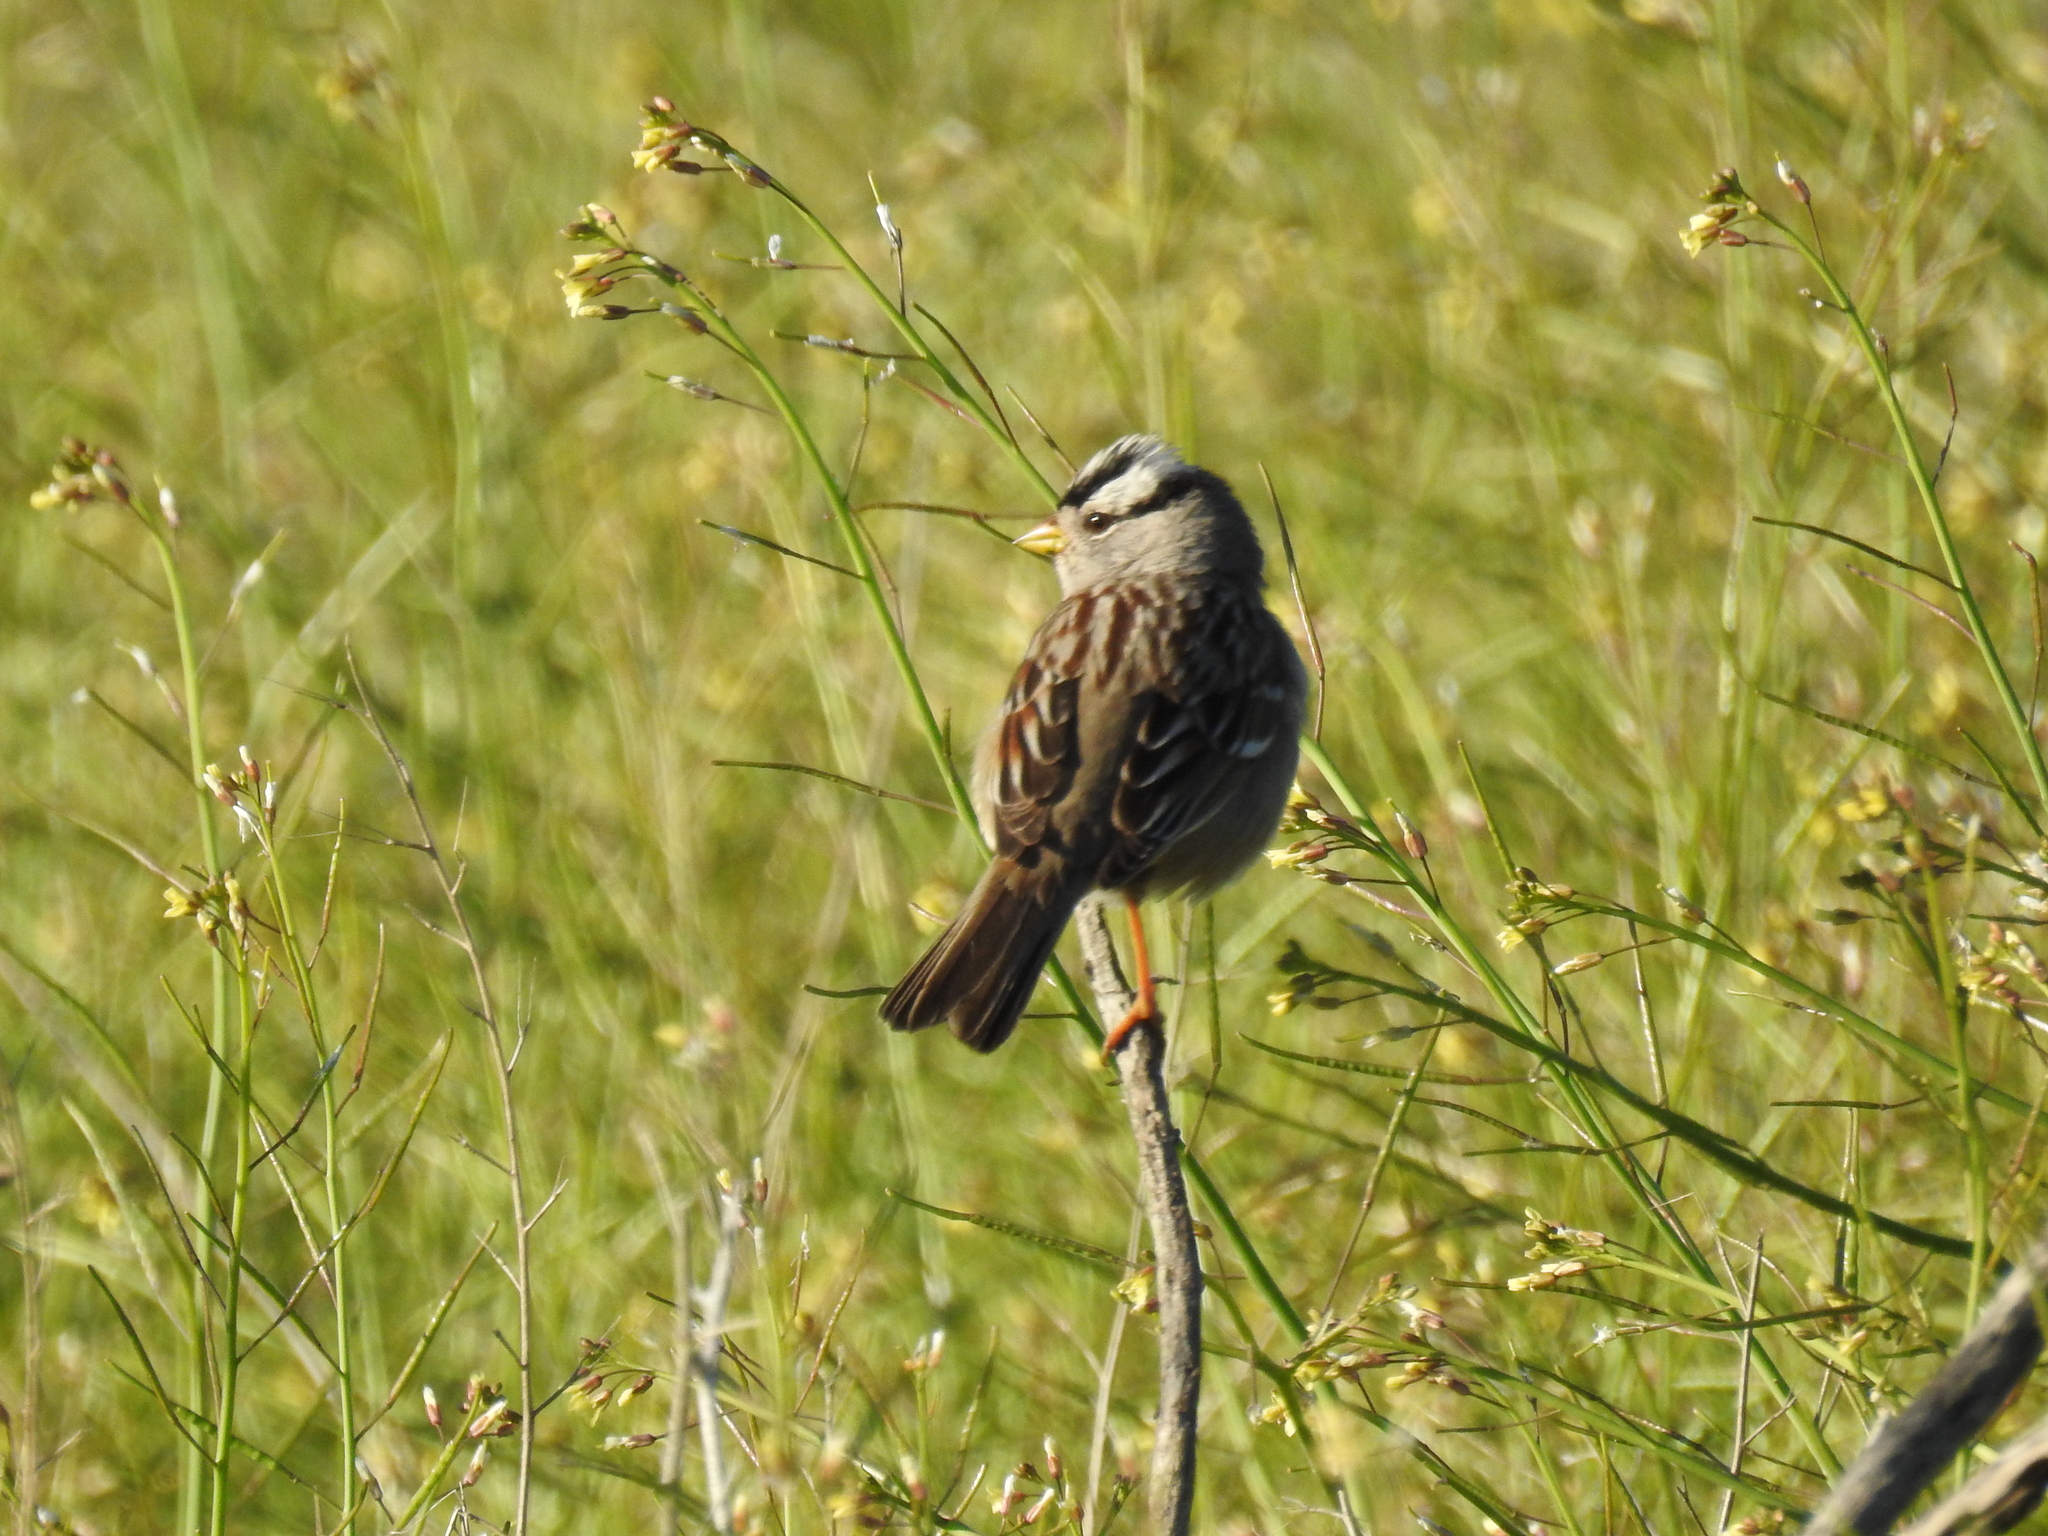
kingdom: Animalia
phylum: Chordata
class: Aves
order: Passeriformes
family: Passerellidae
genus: Zonotrichia
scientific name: Zonotrichia leucophrys
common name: White-crowned sparrow
